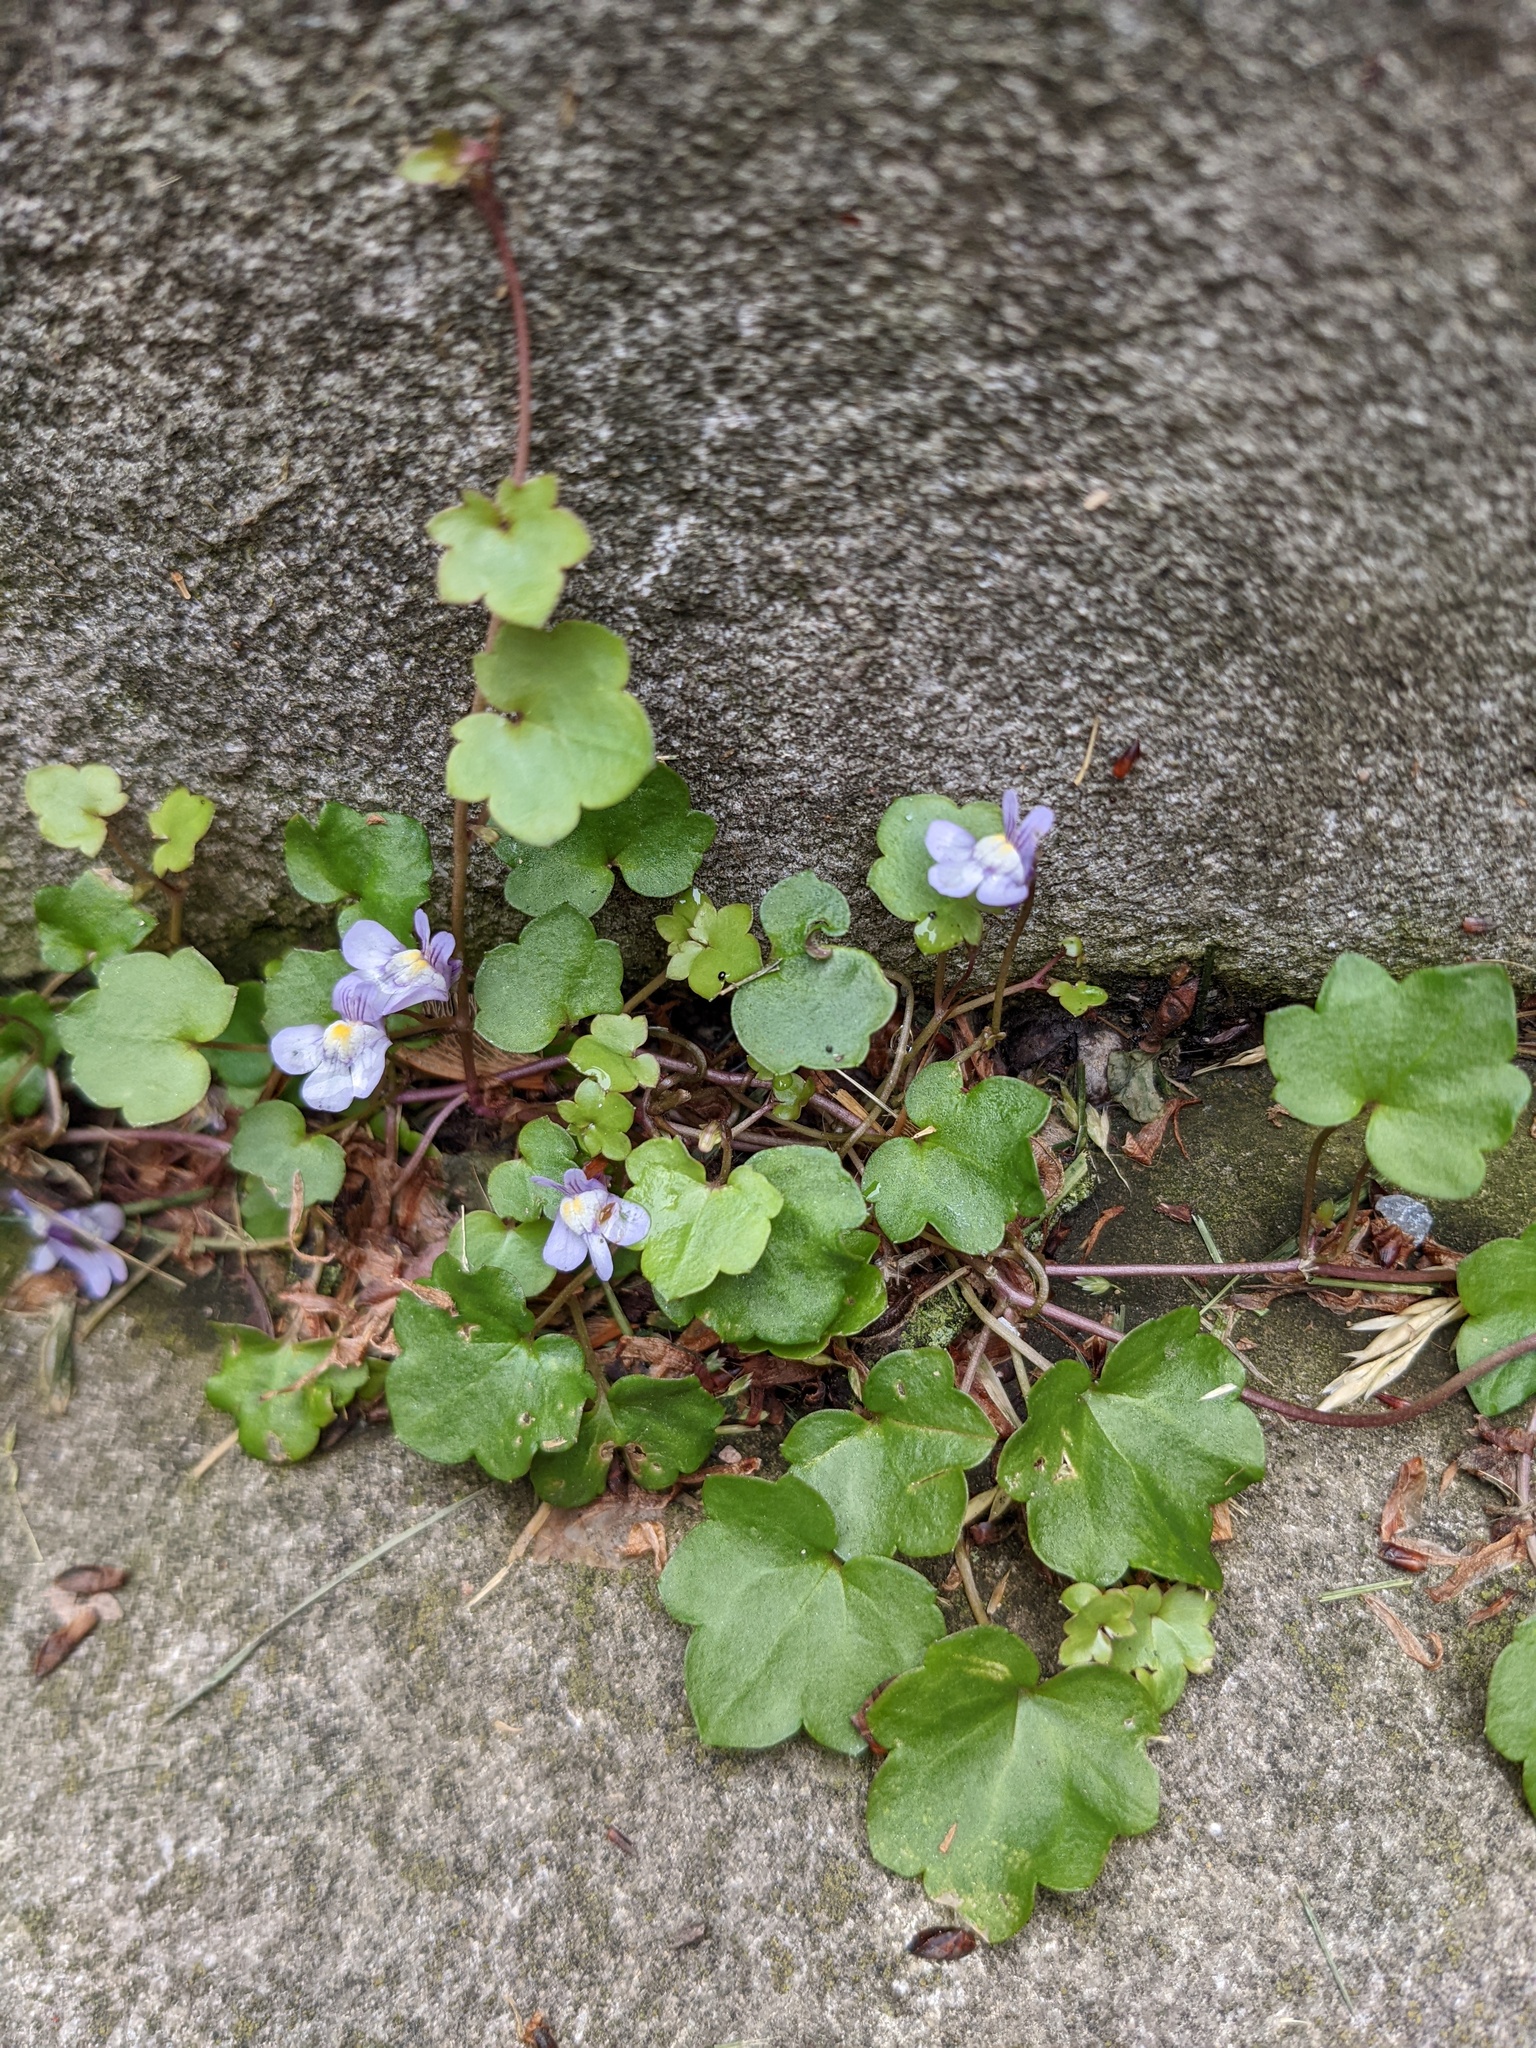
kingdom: Plantae
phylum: Tracheophyta
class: Magnoliopsida
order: Lamiales
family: Plantaginaceae
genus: Cymbalaria
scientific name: Cymbalaria muralis
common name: Ivy-leaved toadflax
